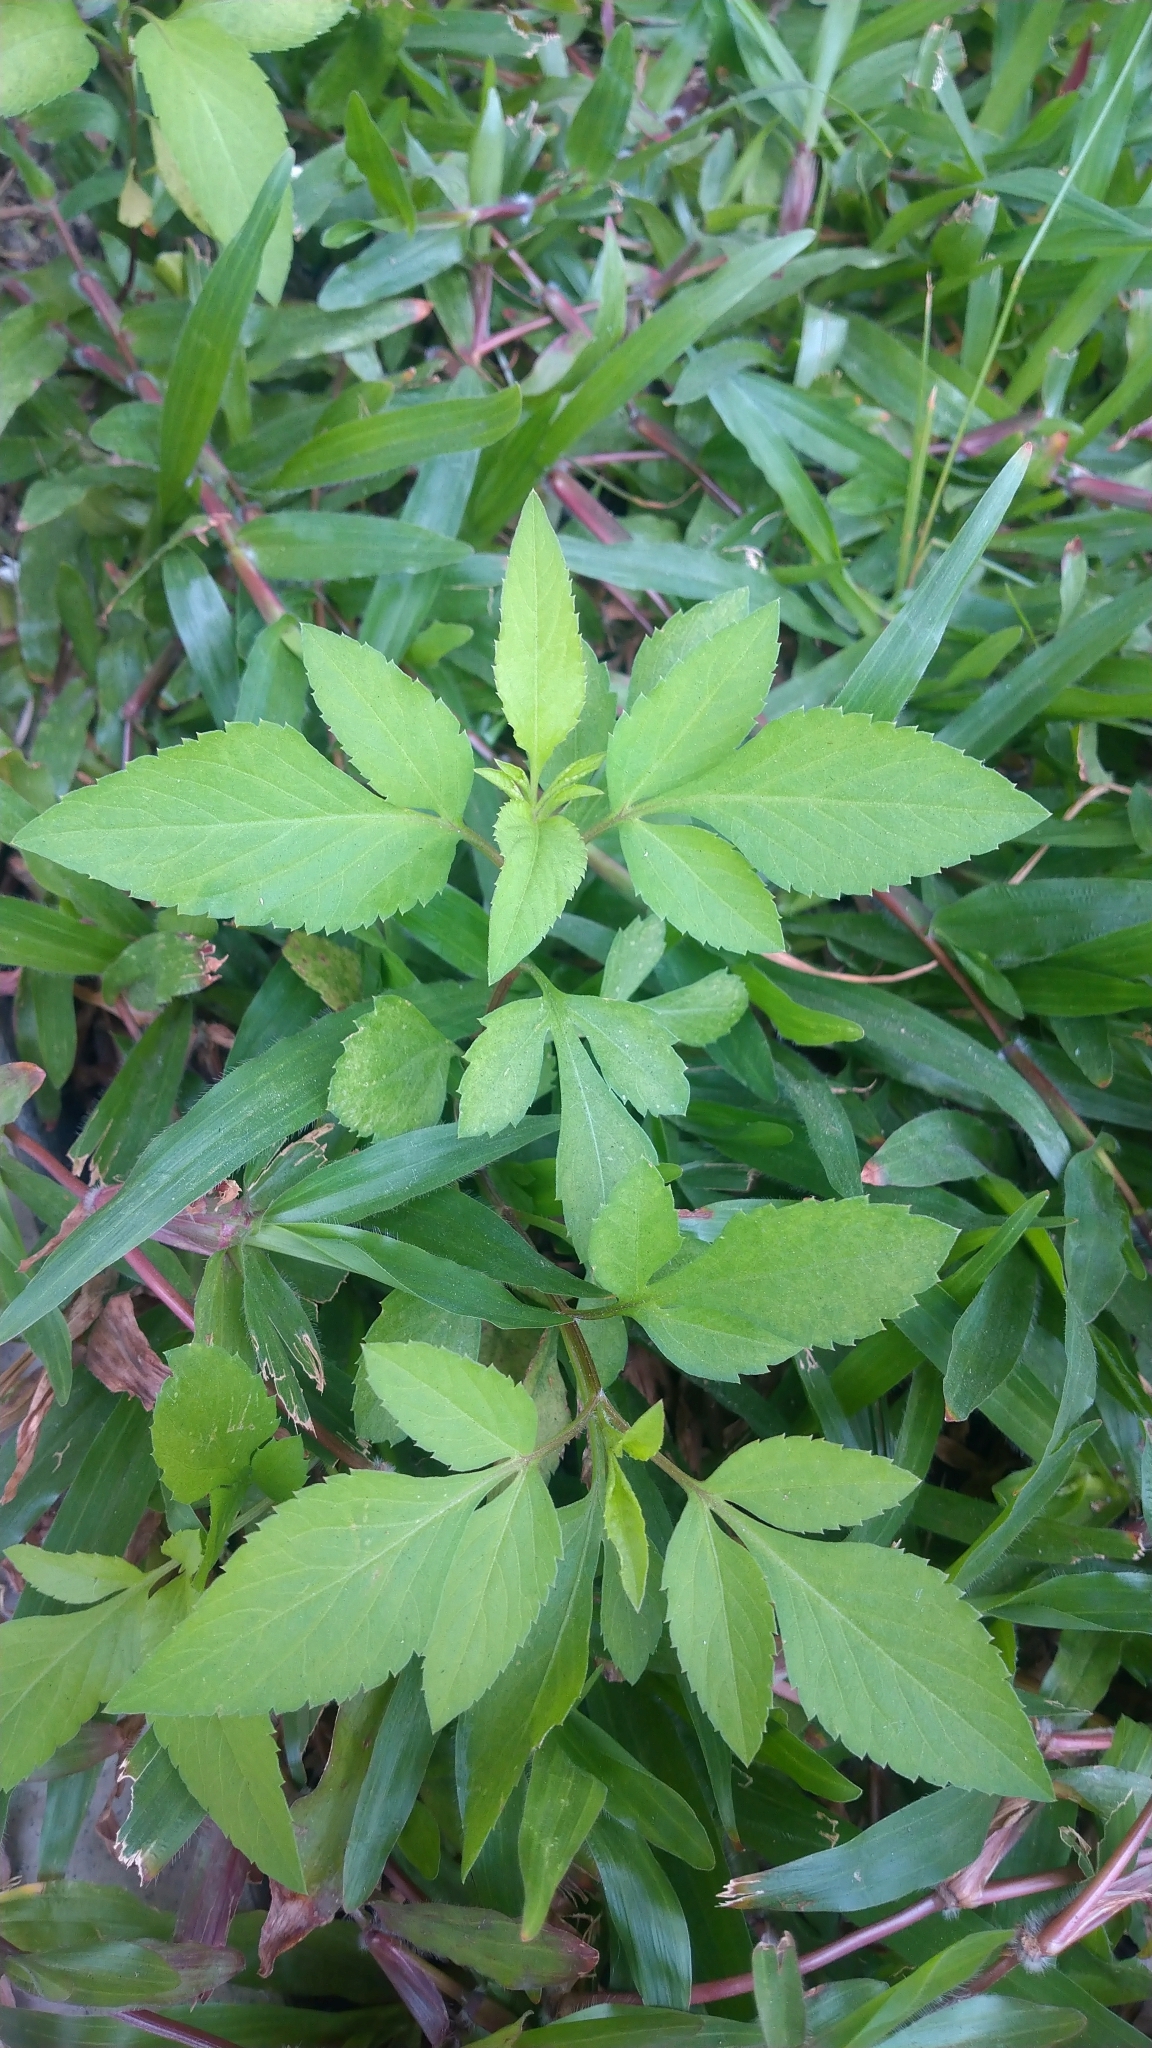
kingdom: Plantae
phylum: Tracheophyta
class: Magnoliopsida
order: Asterales
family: Asteraceae
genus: Bidens
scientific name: Bidens alba
